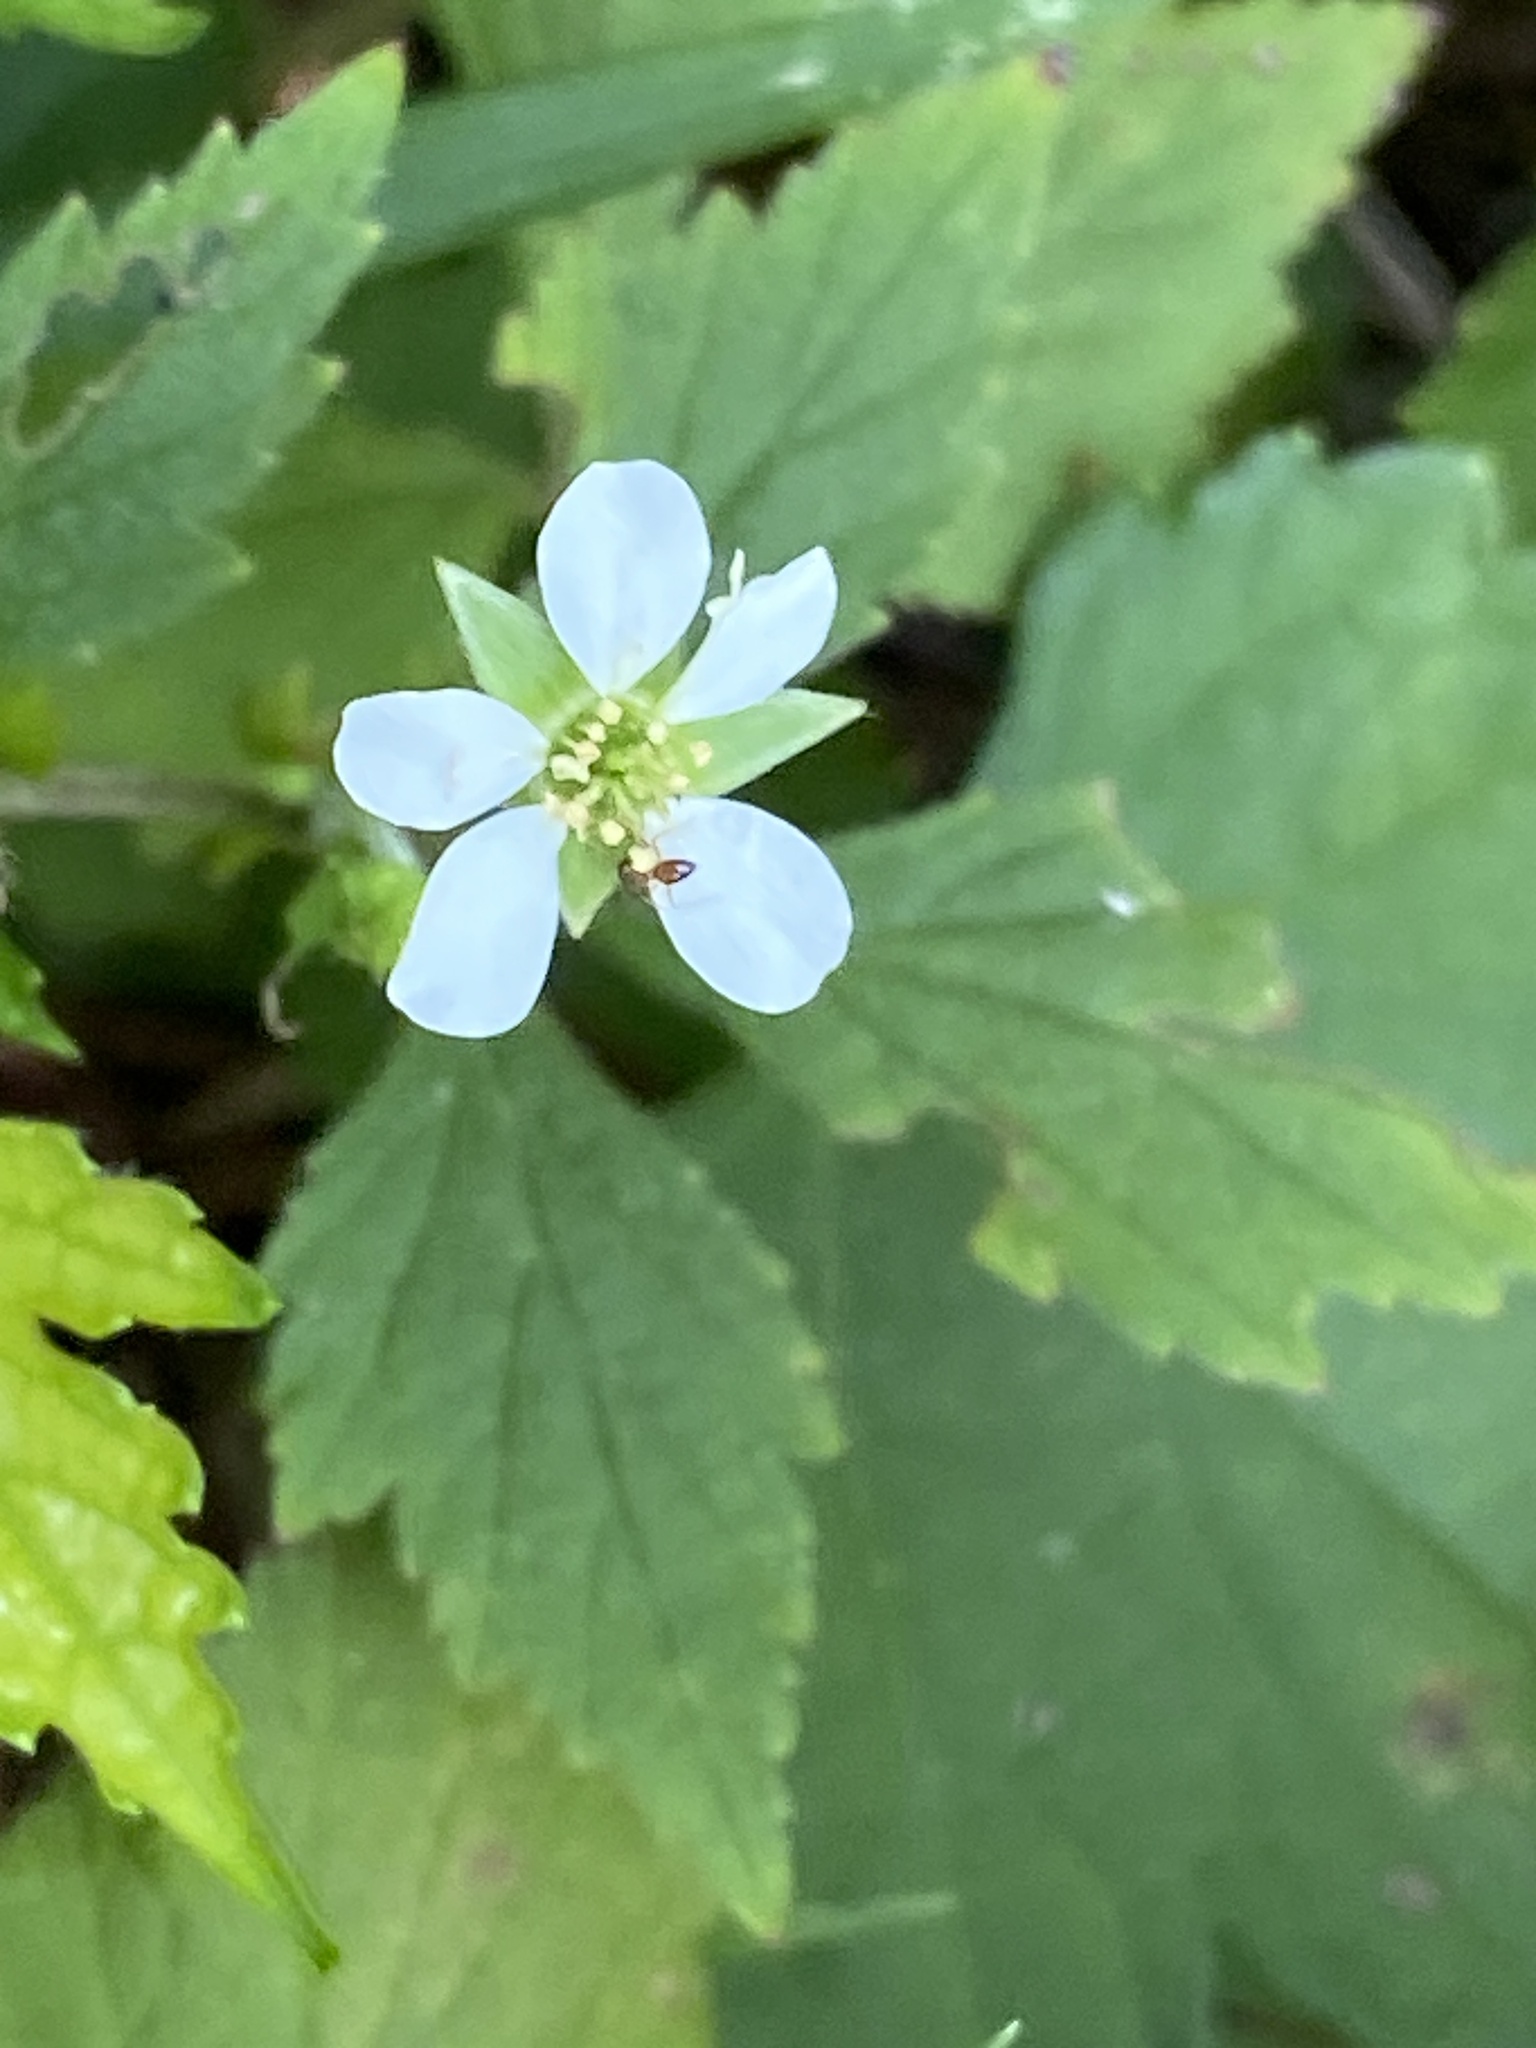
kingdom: Plantae
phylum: Tracheophyta
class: Magnoliopsida
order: Rosales
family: Rosaceae
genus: Geum
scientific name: Geum canadense
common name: White avens
